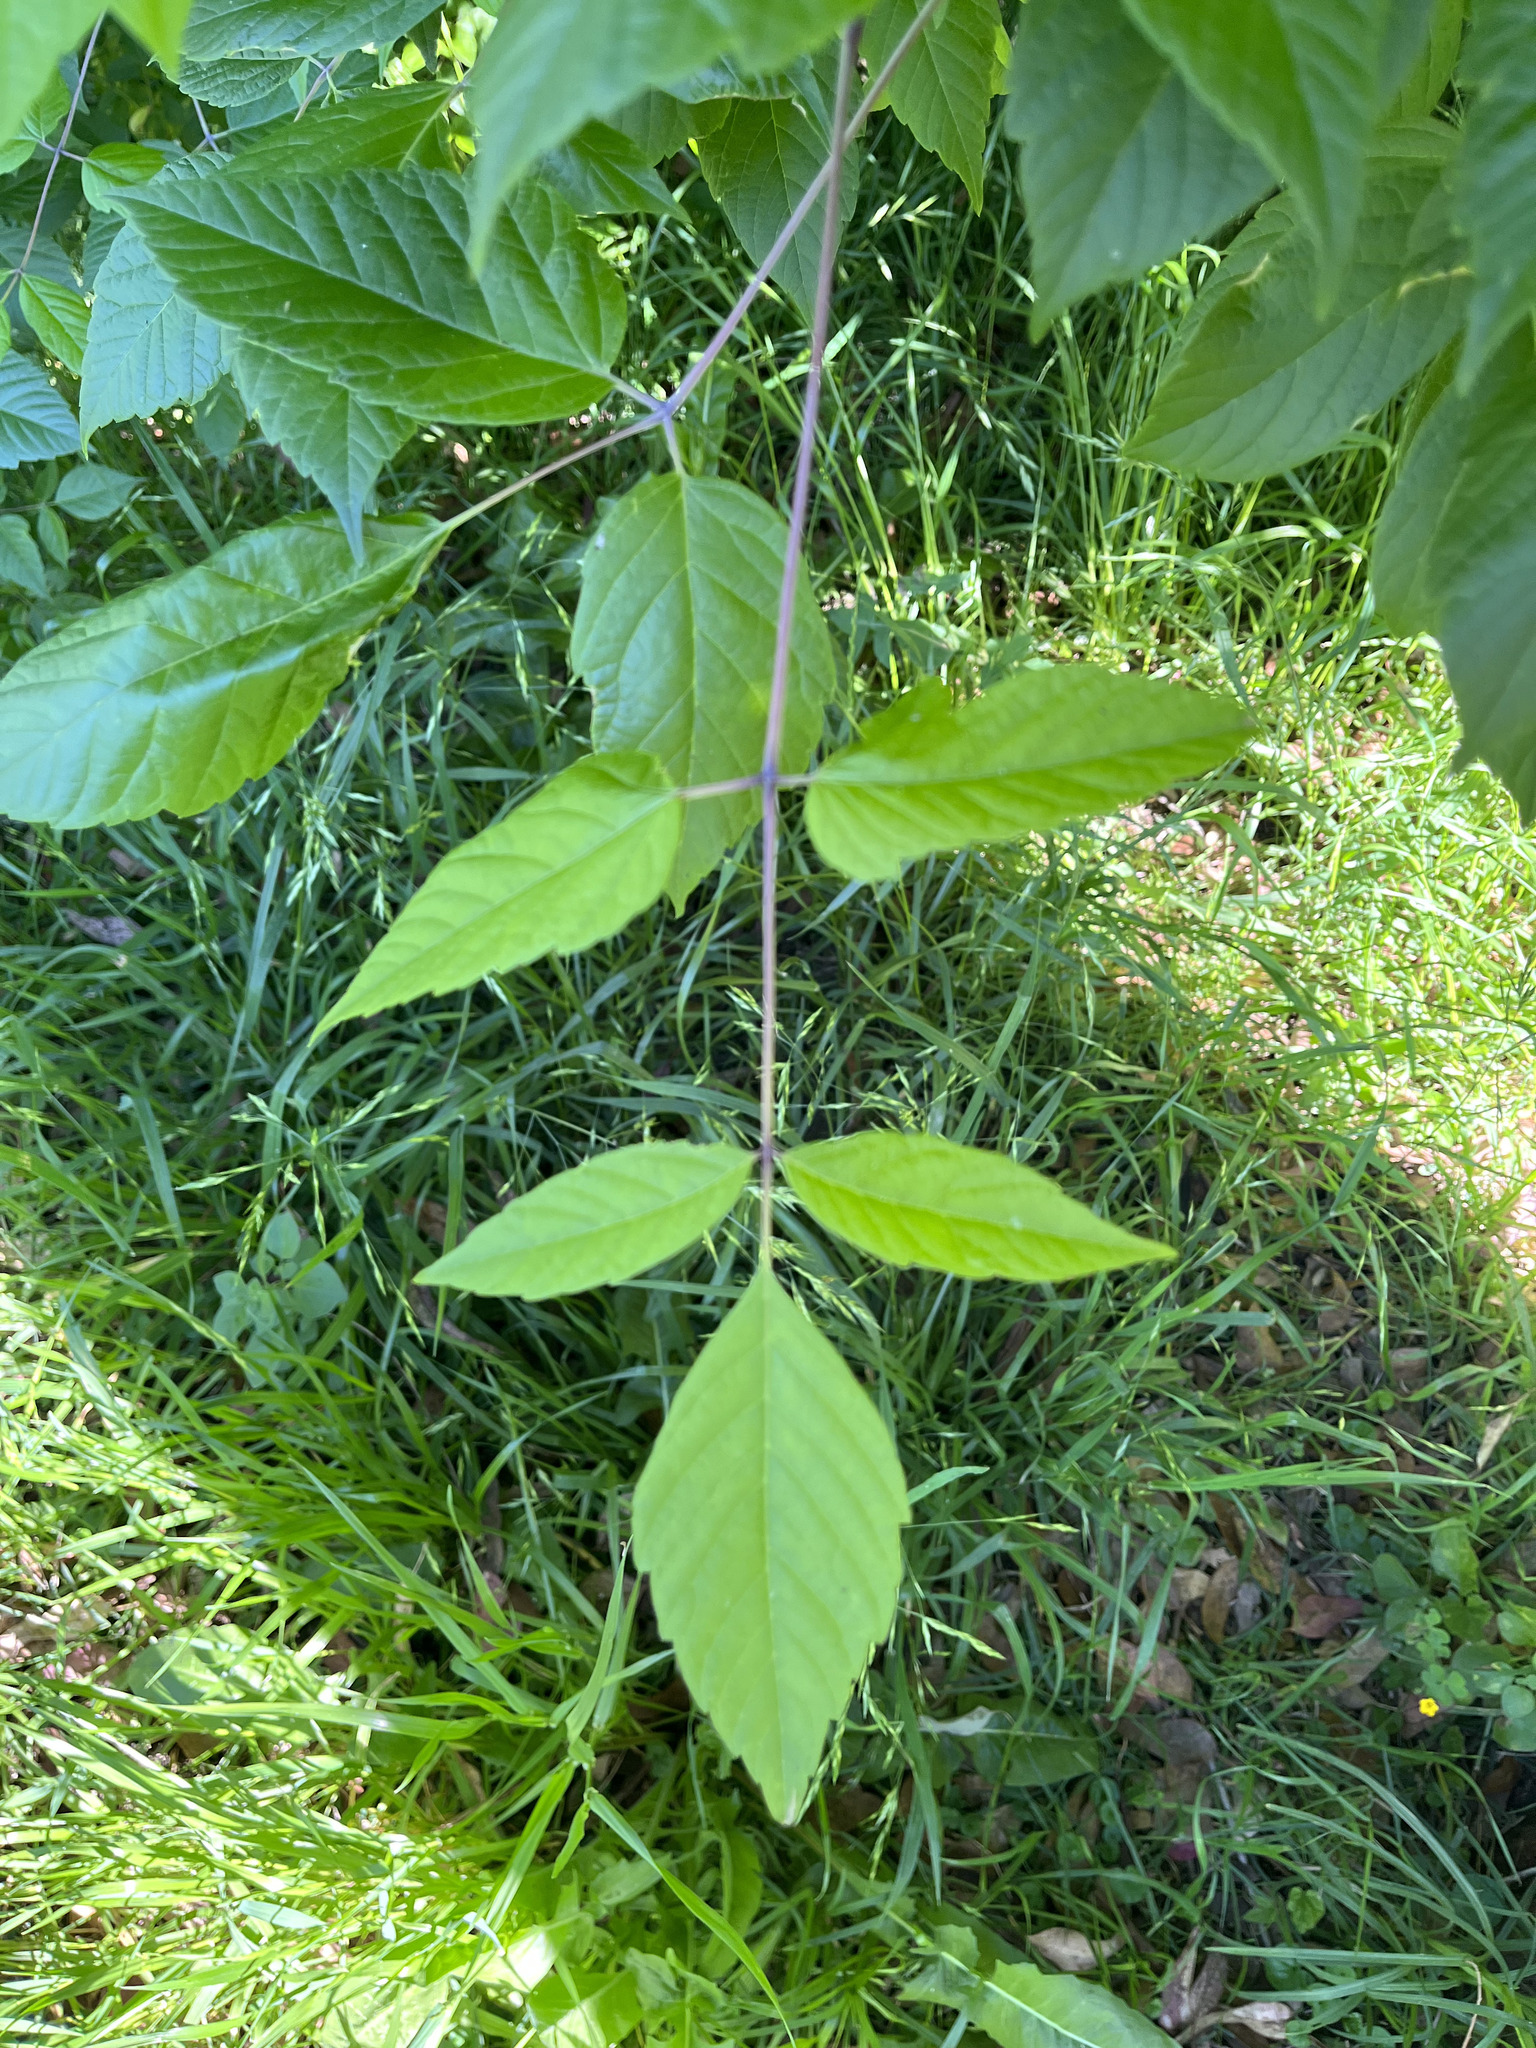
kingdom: Plantae
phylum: Tracheophyta
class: Magnoliopsida
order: Sapindales
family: Sapindaceae
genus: Acer
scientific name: Acer negundo
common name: Ashleaf maple
